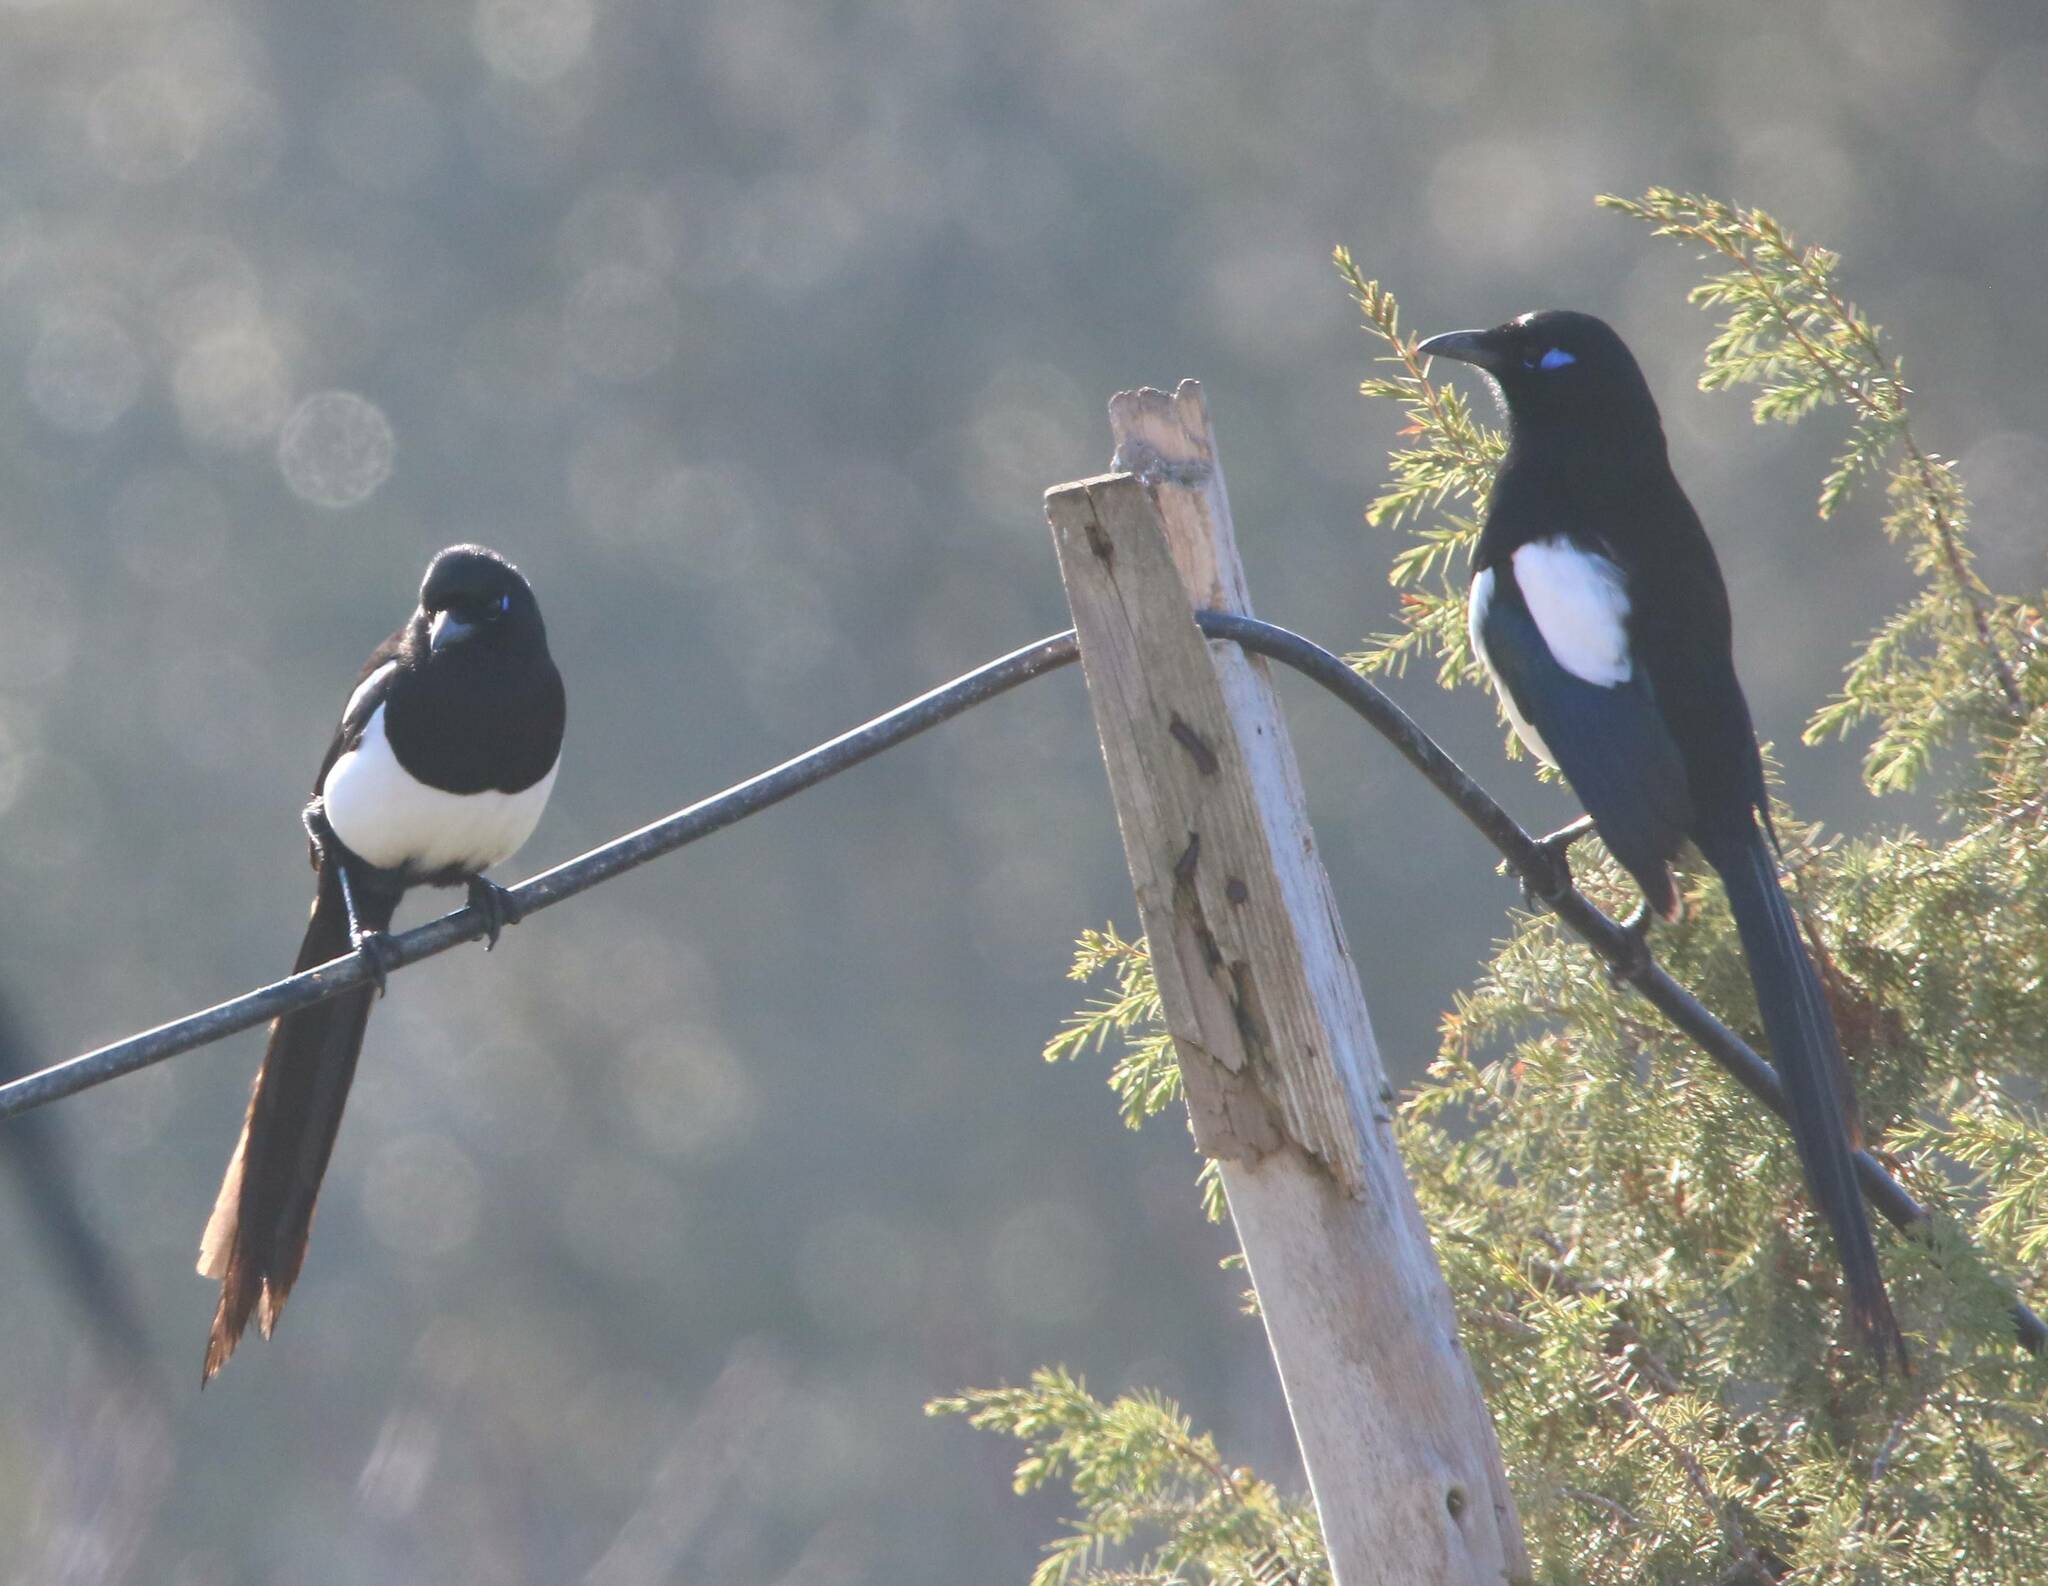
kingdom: Animalia
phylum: Chordata
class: Aves
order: Passeriformes
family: Corvidae
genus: Pica
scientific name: Pica mauritanica
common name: Maghreb magpie
